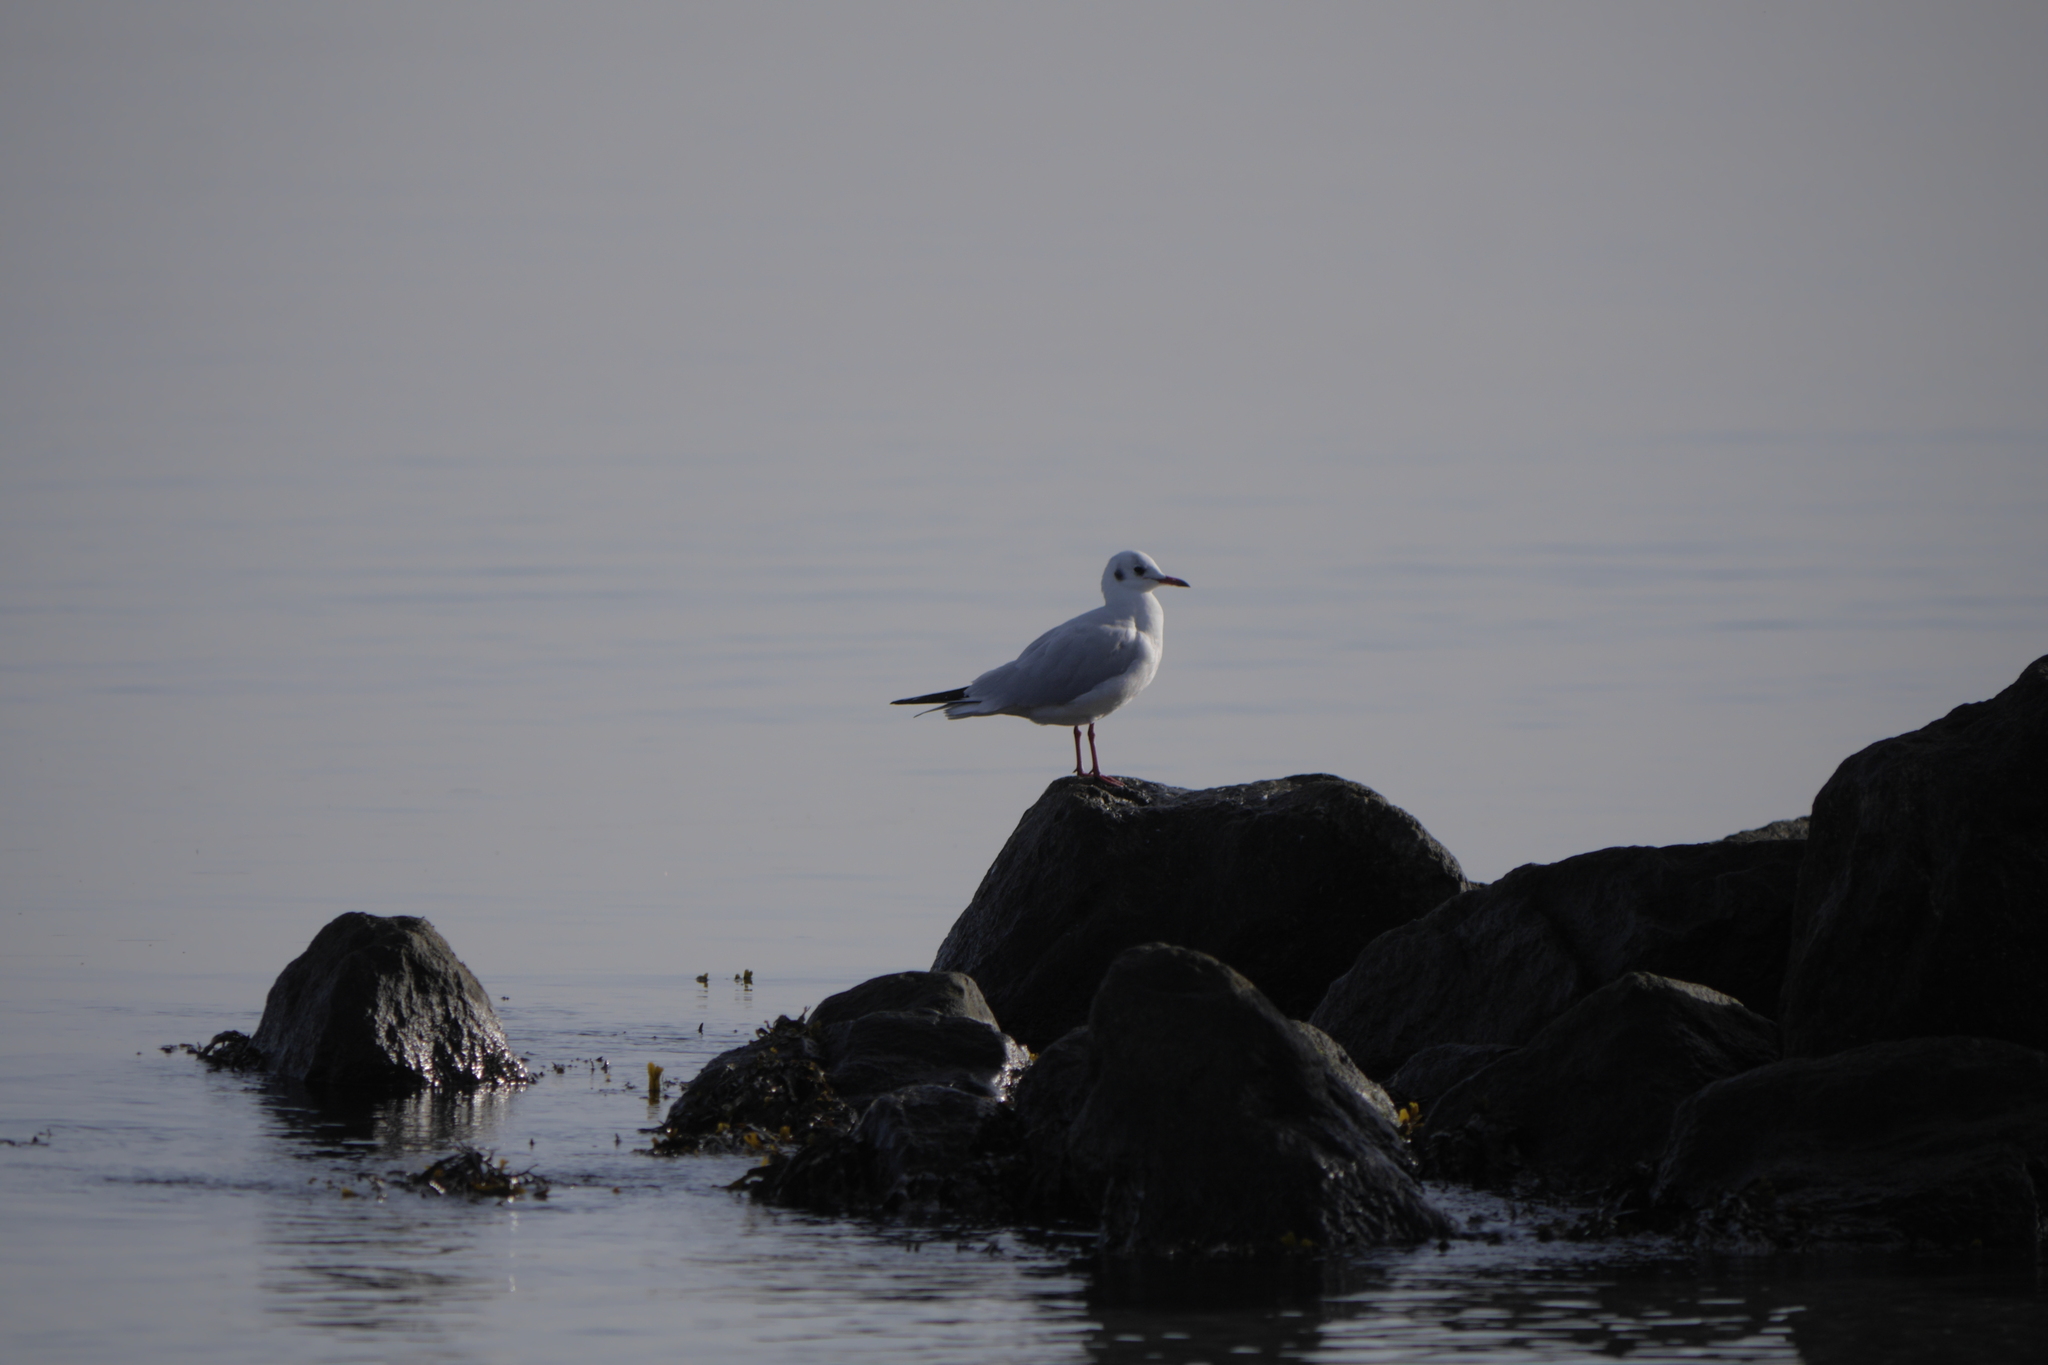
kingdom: Animalia
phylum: Chordata
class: Aves
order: Charadriiformes
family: Laridae
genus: Chroicocephalus
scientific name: Chroicocephalus ridibundus
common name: Black-headed gull
